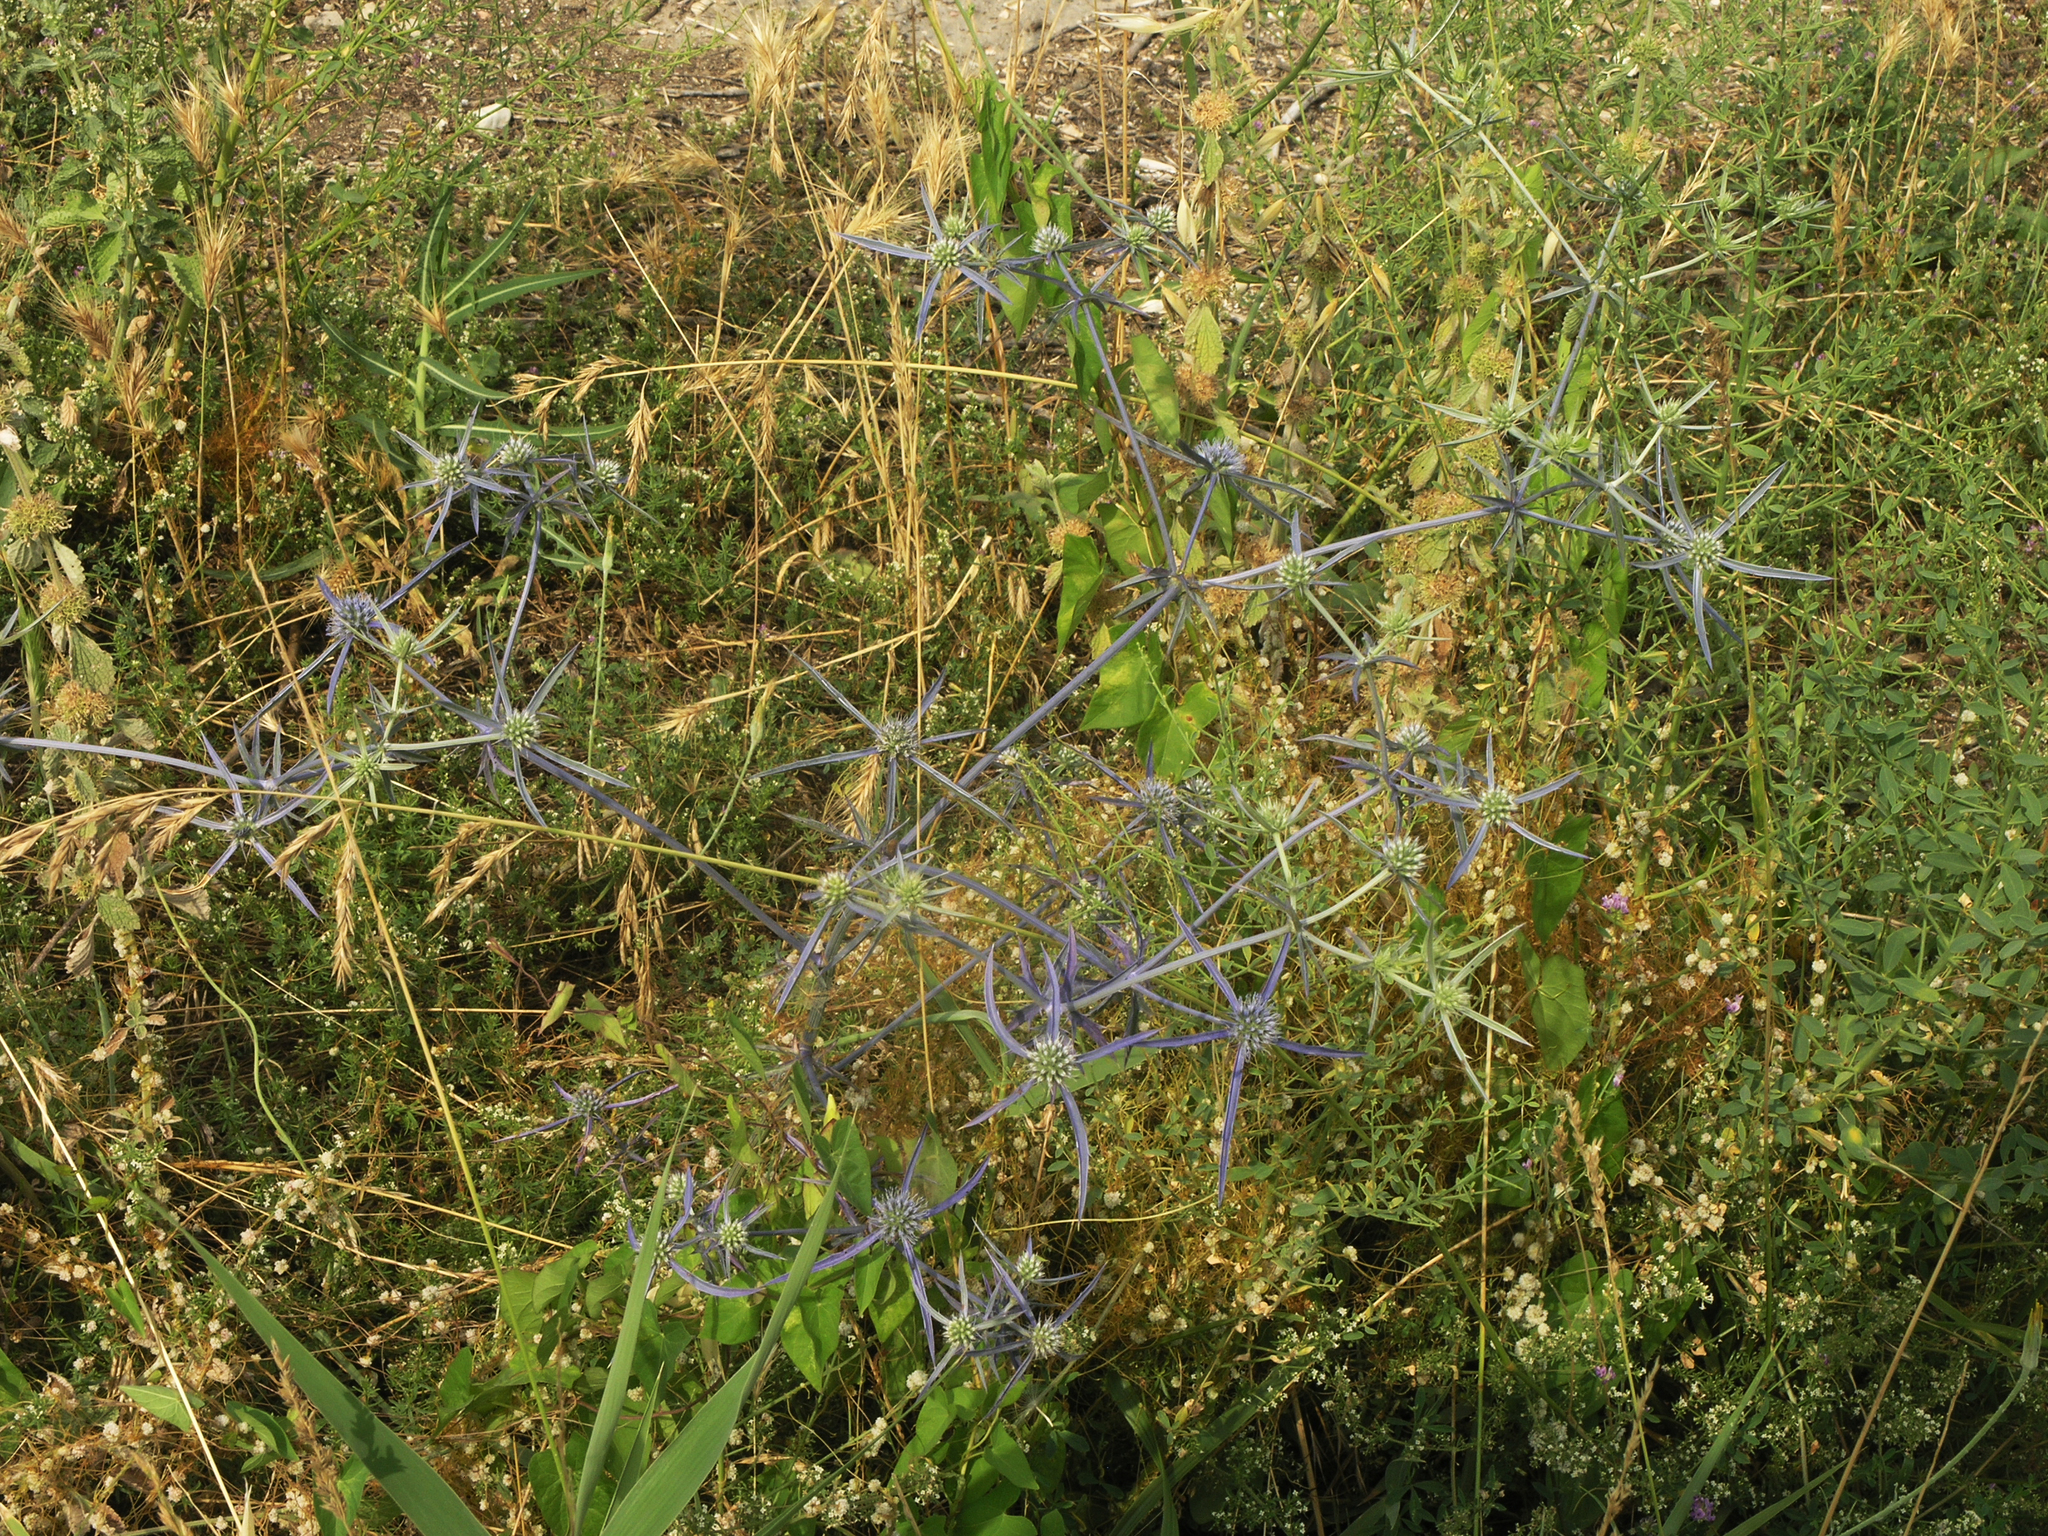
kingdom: Plantae
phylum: Tracheophyta
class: Magnoliopsida
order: Apiales
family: Apiaceae
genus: Eryngium
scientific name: Eryngium caeruleum
